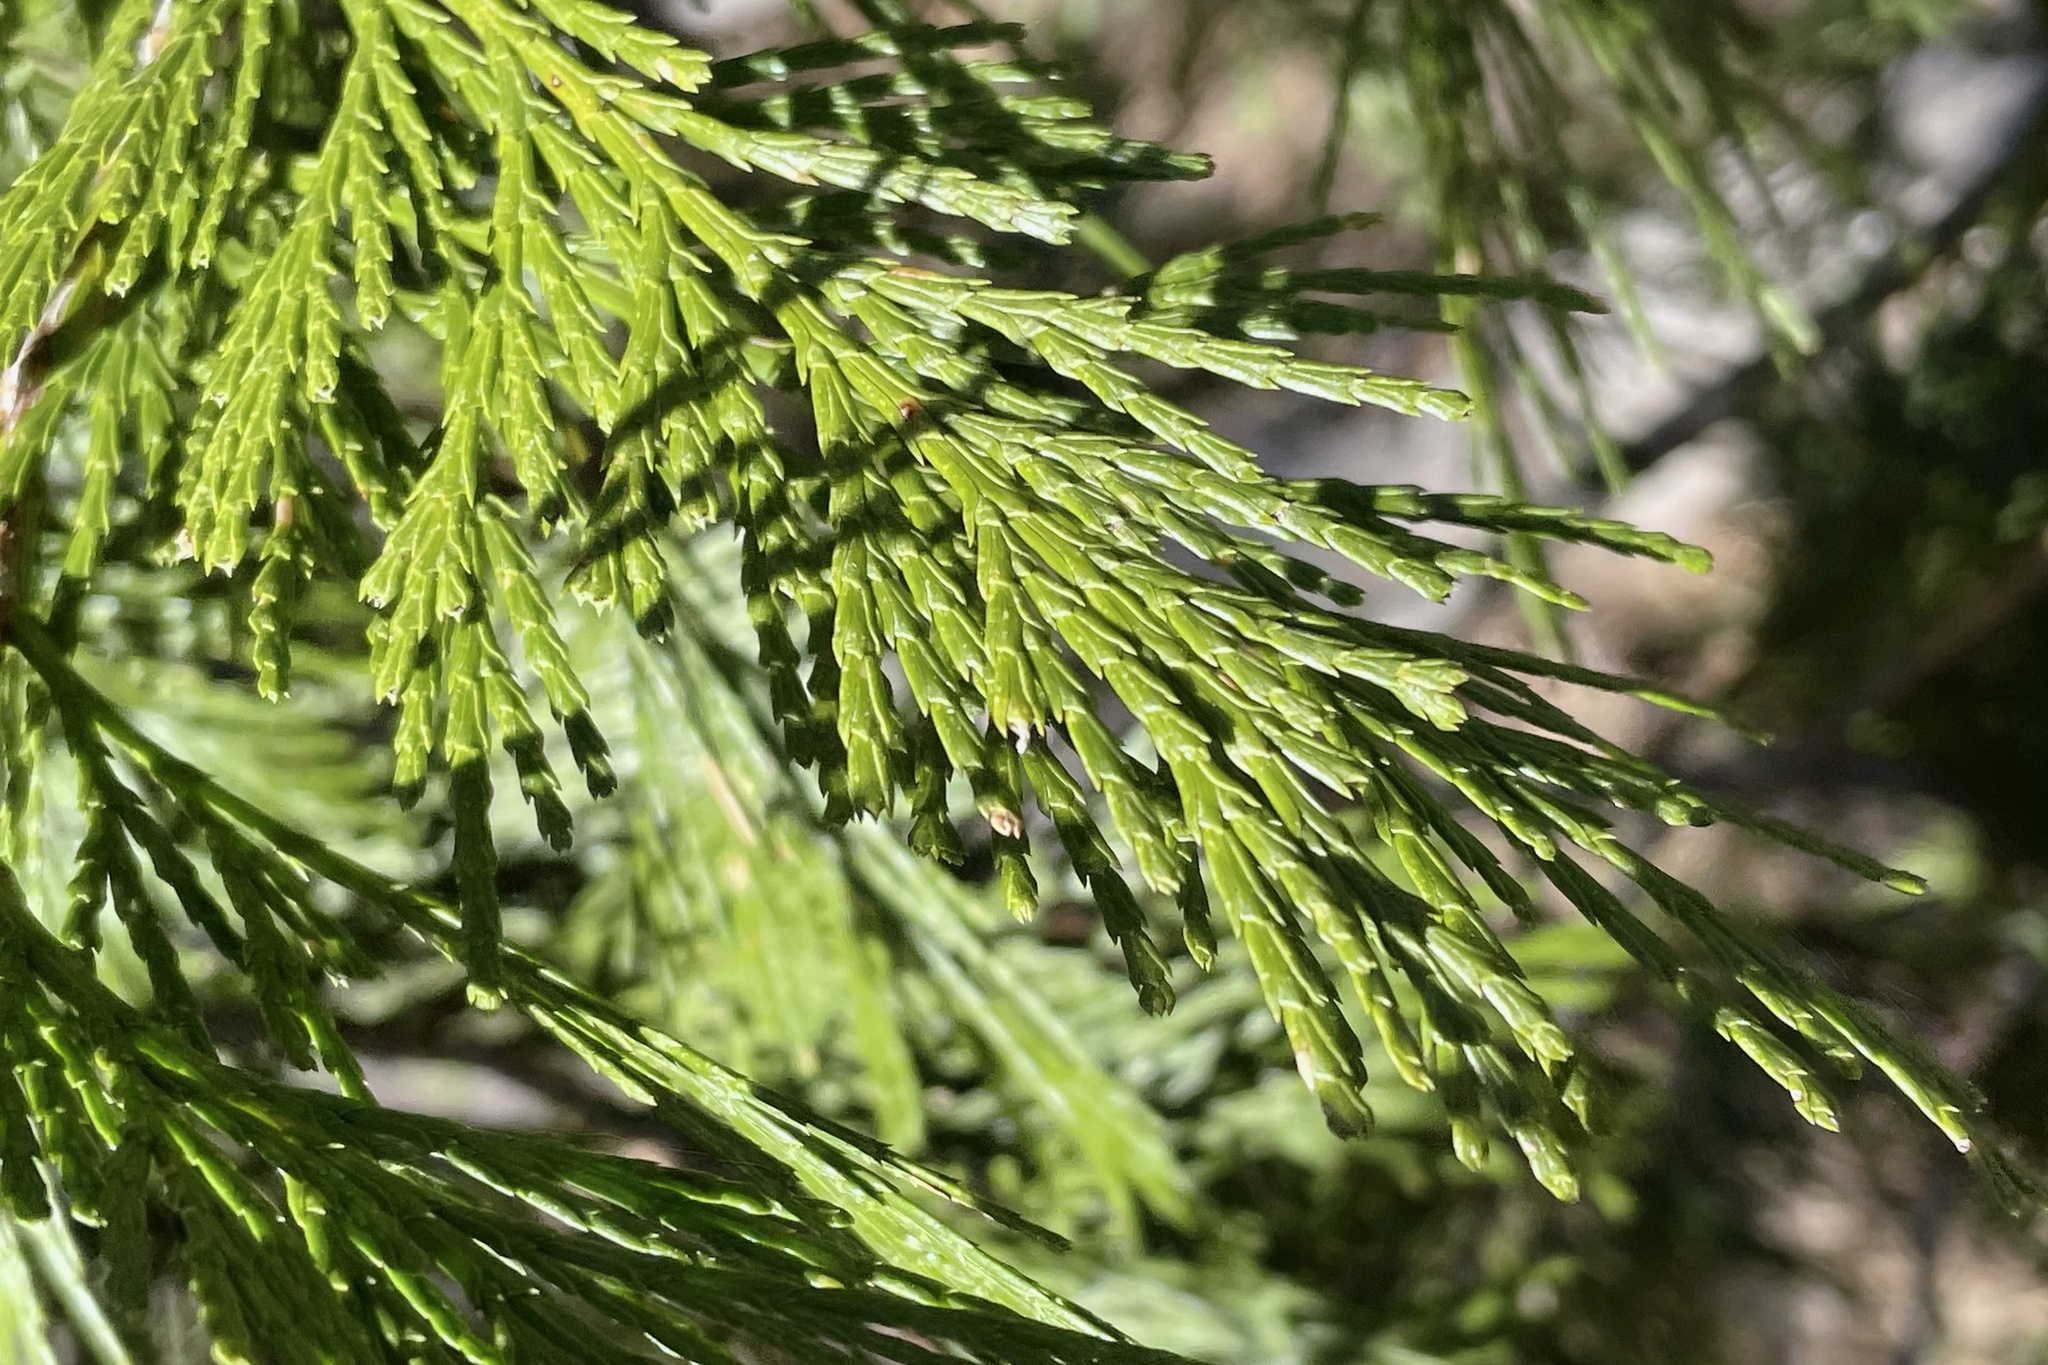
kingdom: Plantae
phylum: Tracheophyta
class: Pinopsida
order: Pinales
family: Cupressaceae
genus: Calocedrus
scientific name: Calocedrus decurrens
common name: Californian incense-cedar
